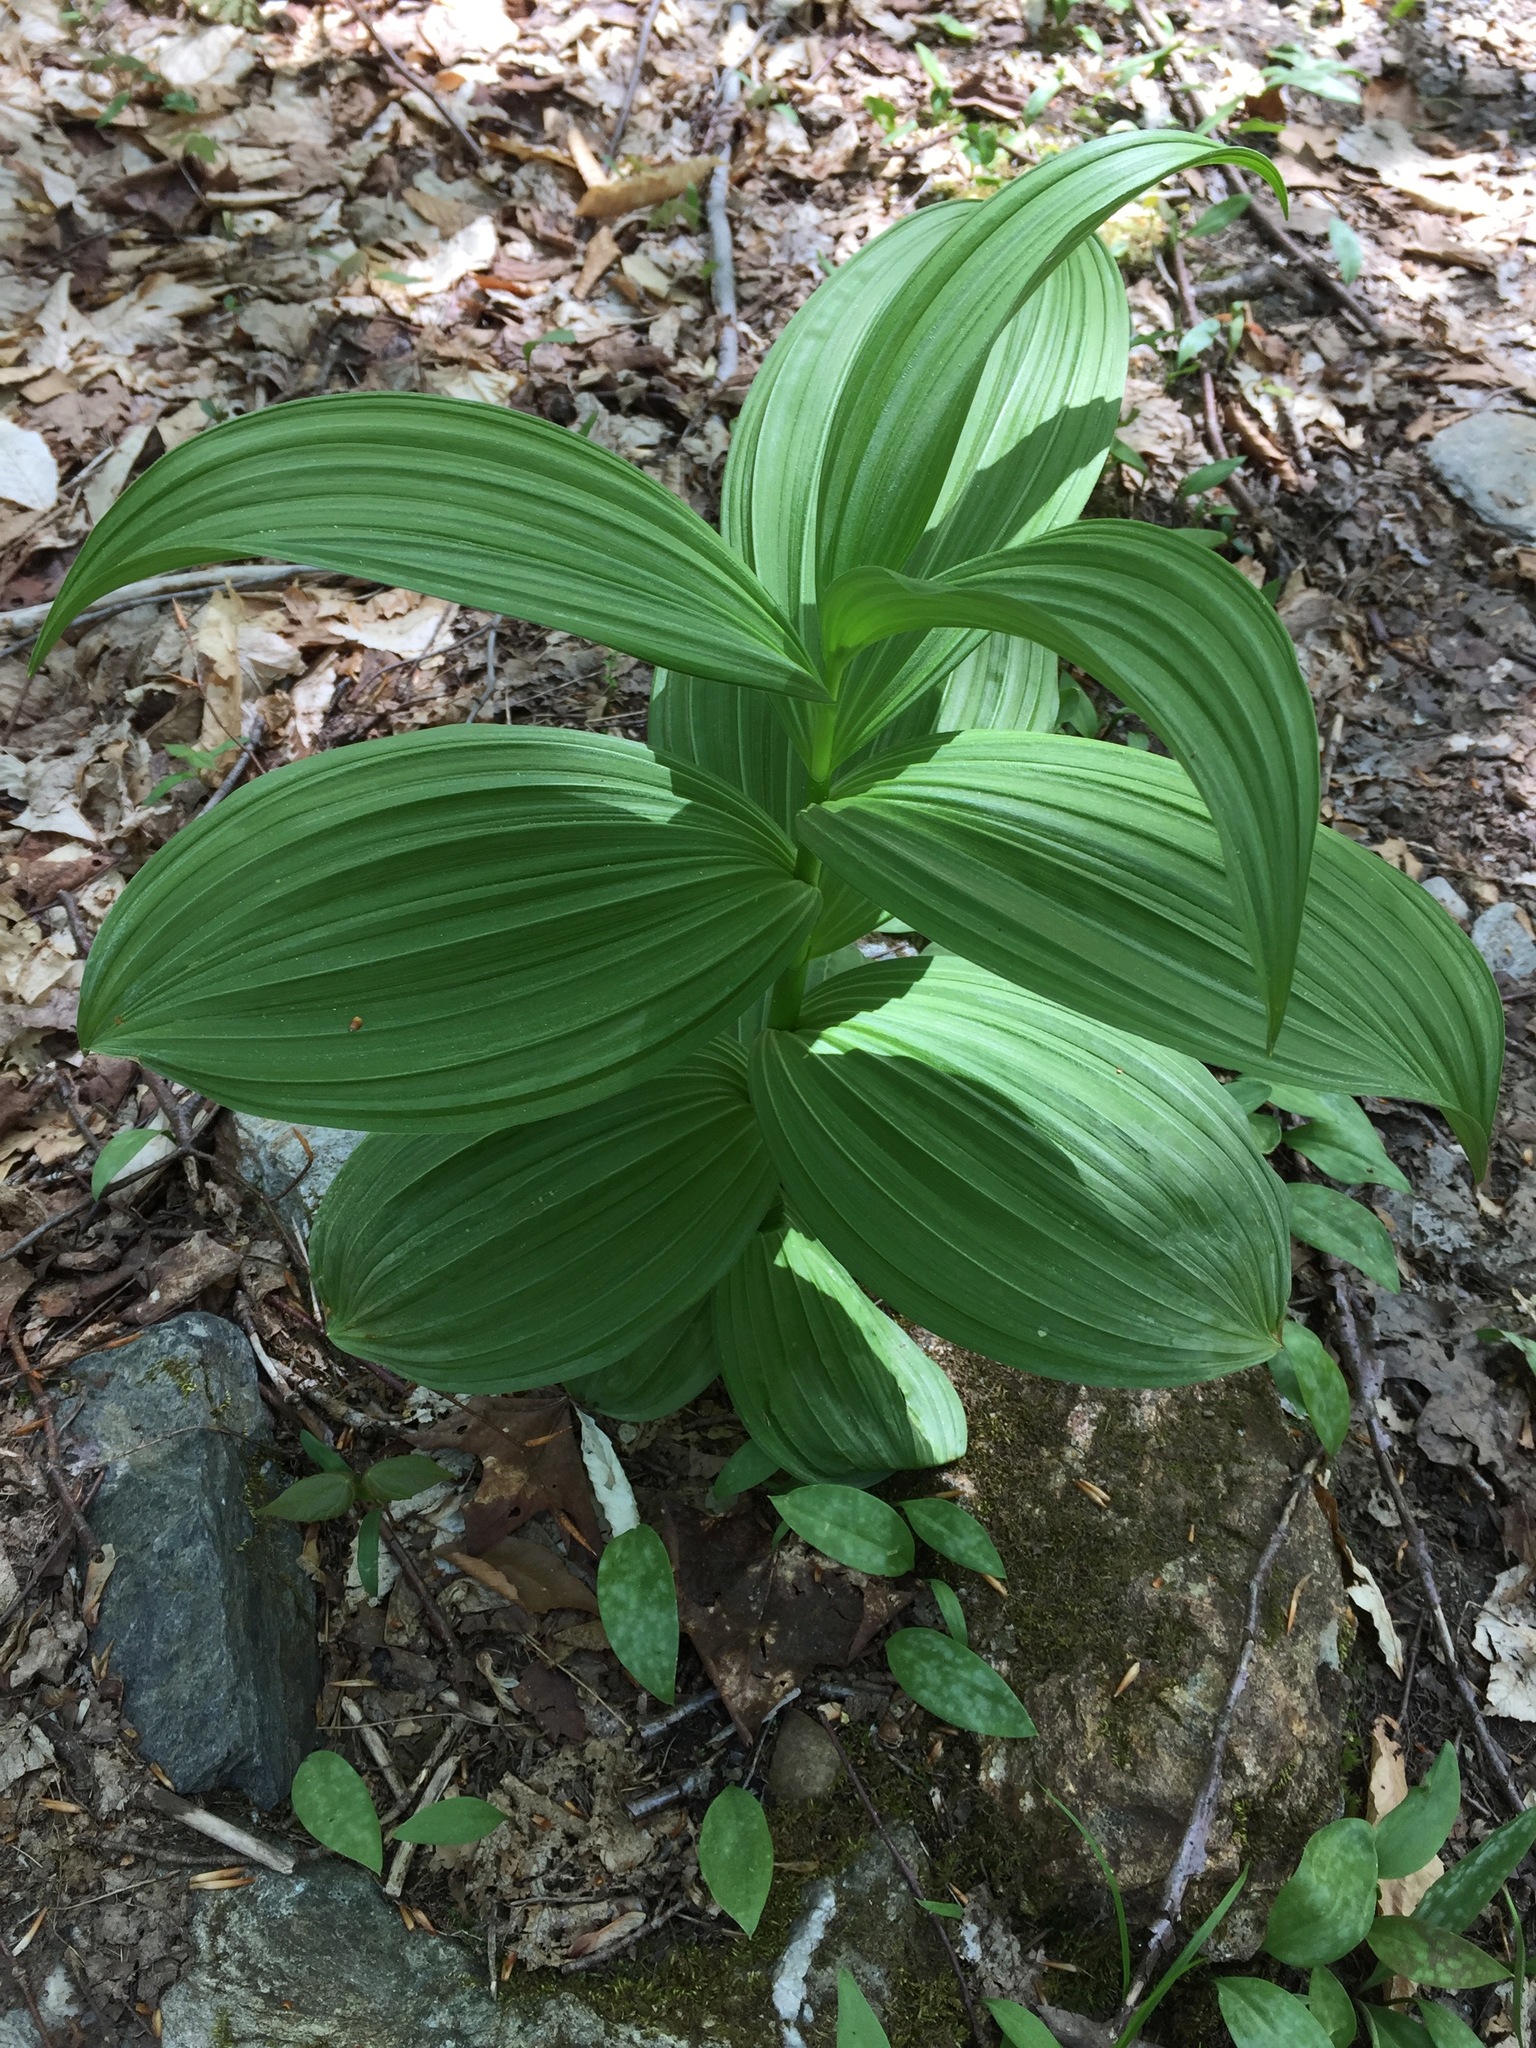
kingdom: Plantae
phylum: Tracheophyta
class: Liliopsida
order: Liliales
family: Melanthiaceae
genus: Veratrum
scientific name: Veratrum viride
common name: American false hellebore
